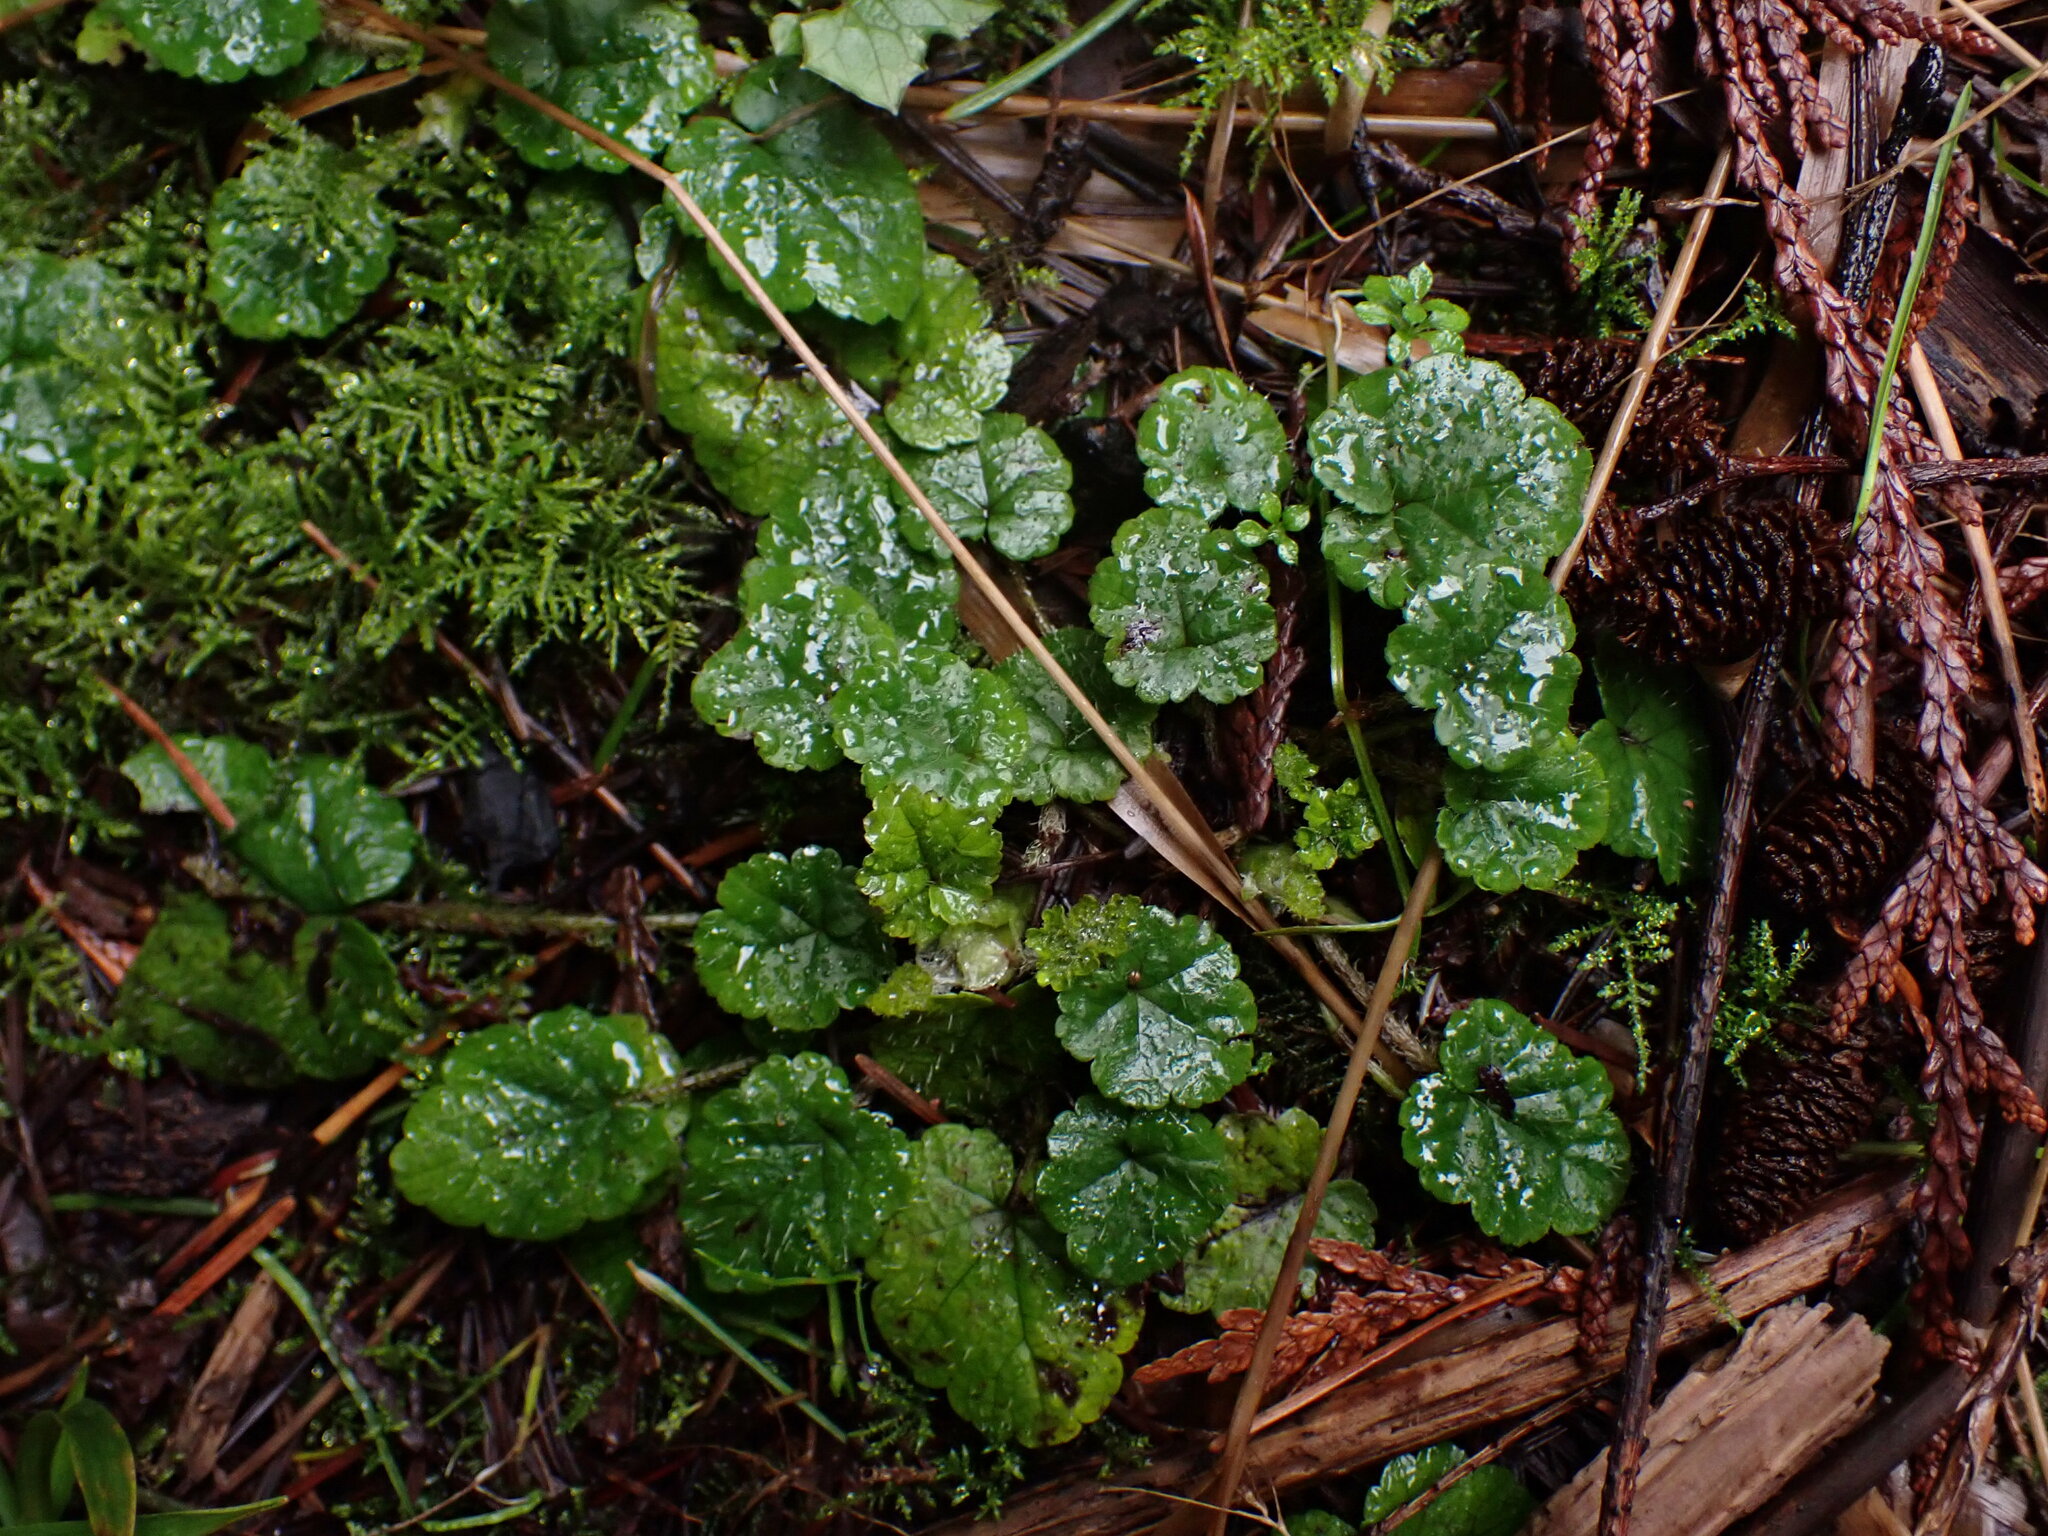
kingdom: Plantae
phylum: Tracheophyta
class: Magnoliopsida
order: Saxifragales
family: Saxifragaceae
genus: Brewerimitella
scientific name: Brewerimitella ovalis
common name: Coastal bishop's-cap
